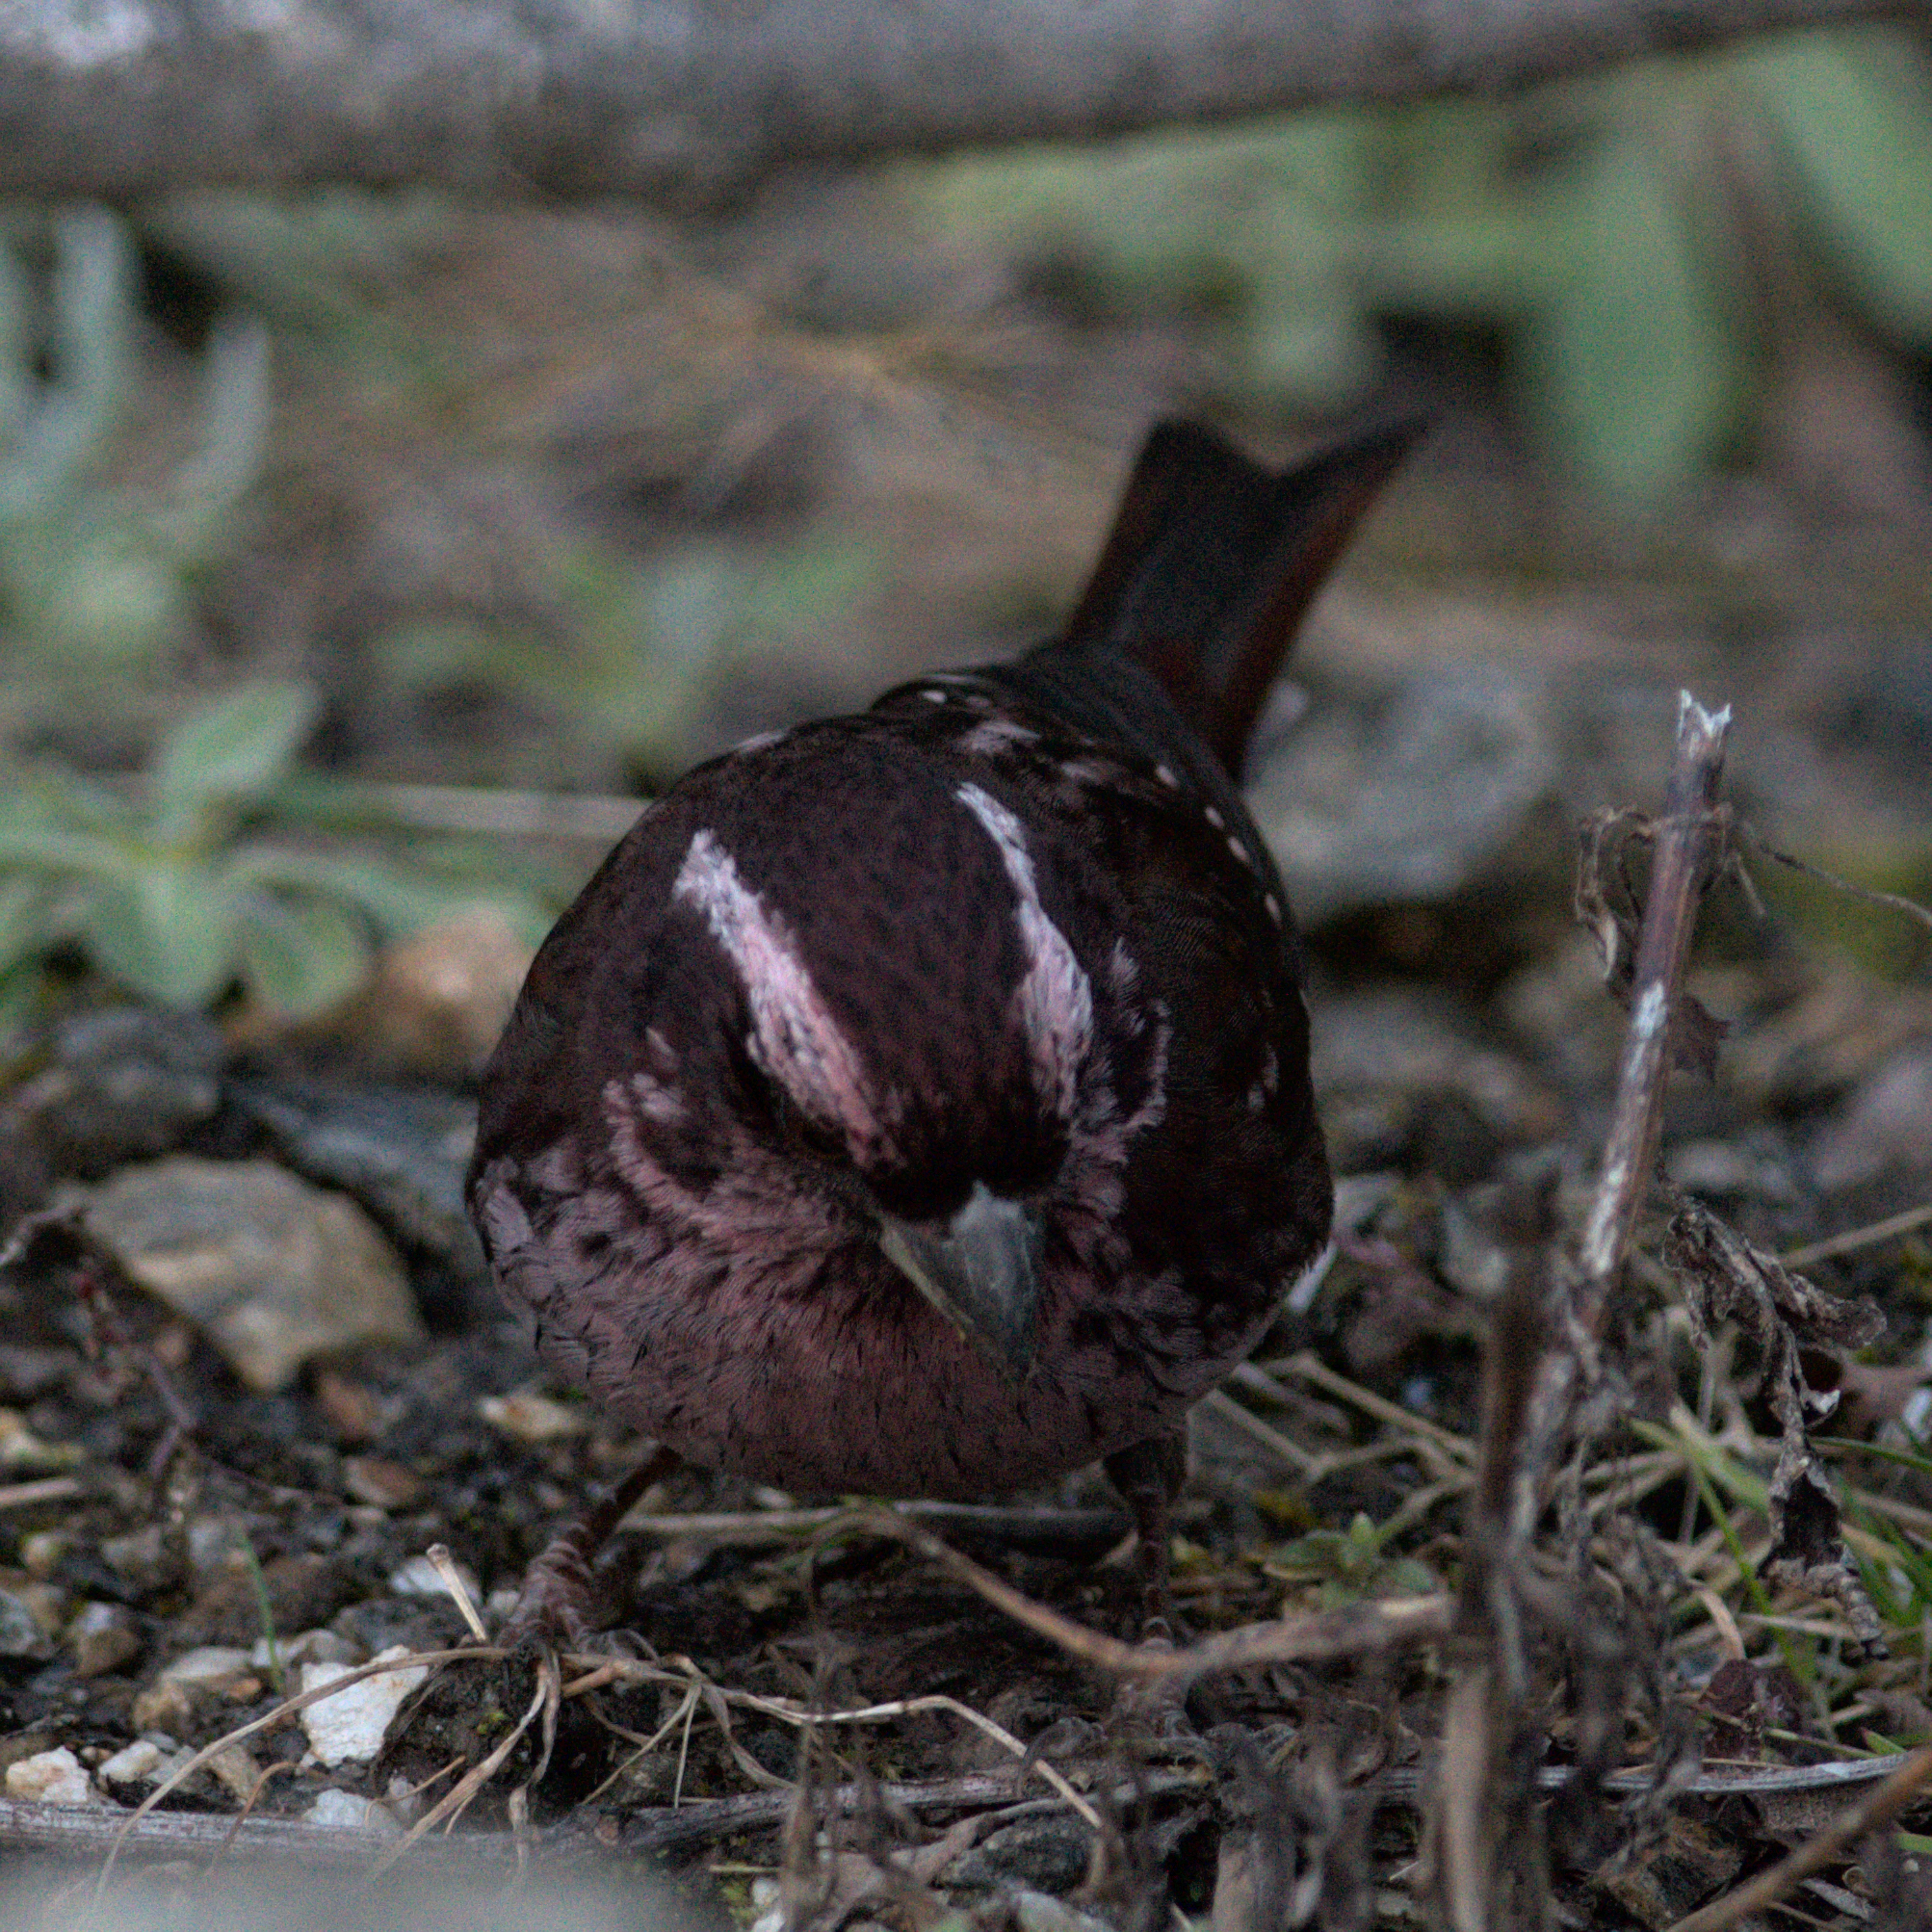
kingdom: Animalia
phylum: Chordata
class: Aves
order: Passeriformes
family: Fringillidae
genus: Carpodacus
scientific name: Carpodacus rodopeplus
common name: Spot-winged rosefinch
